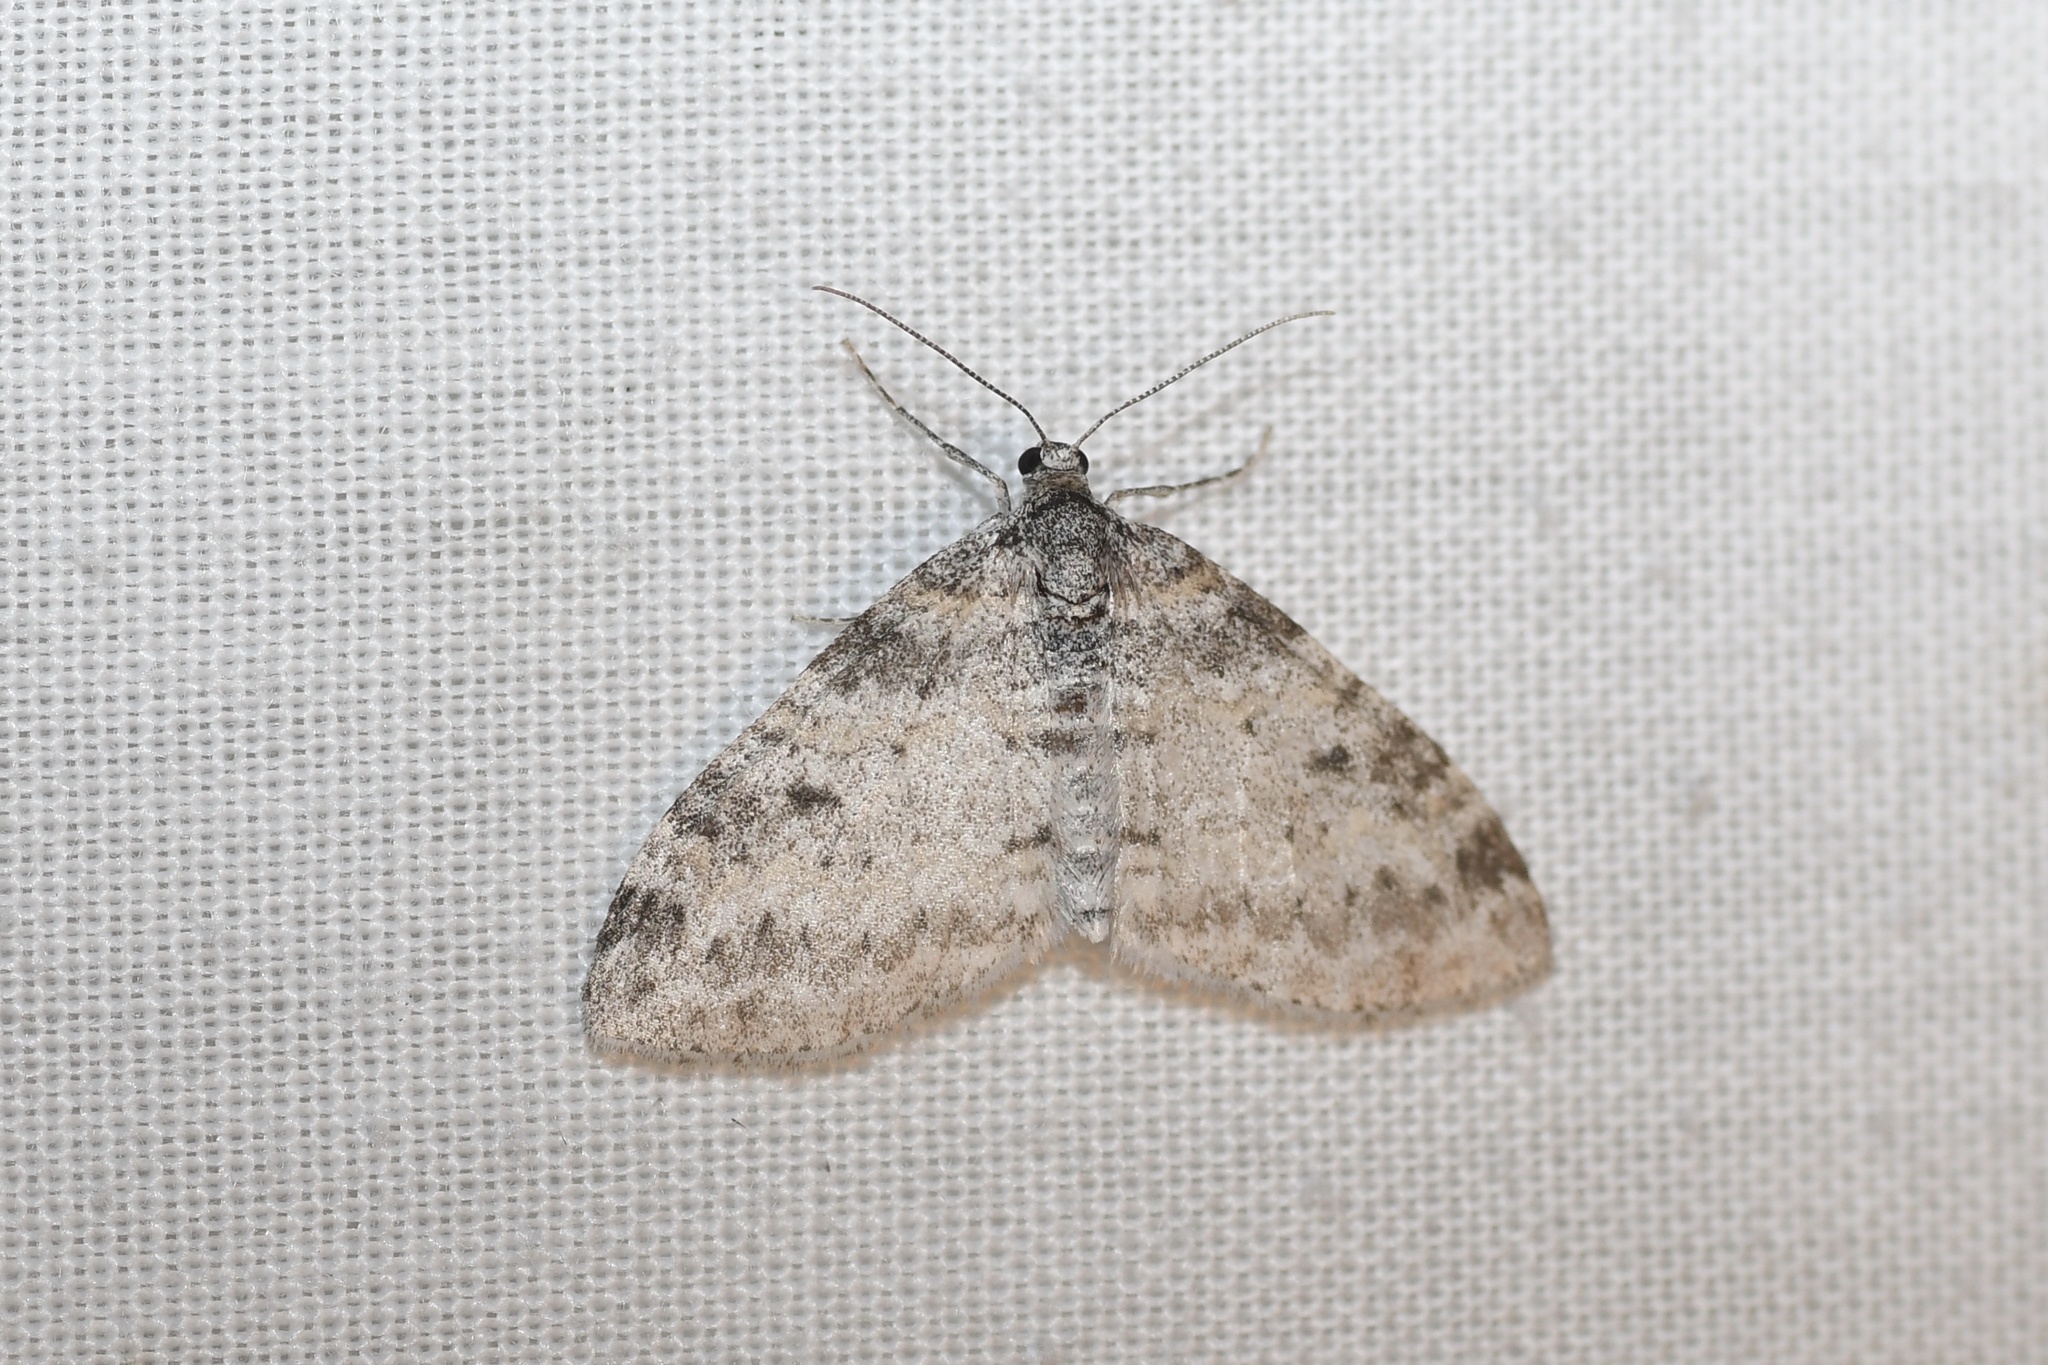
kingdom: Animalia
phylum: Arthropoda
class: Insecta
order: Lepidoptera
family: Geometridae
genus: Lobophora
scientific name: Lobophora nivigerata
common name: Powdered bigwing
